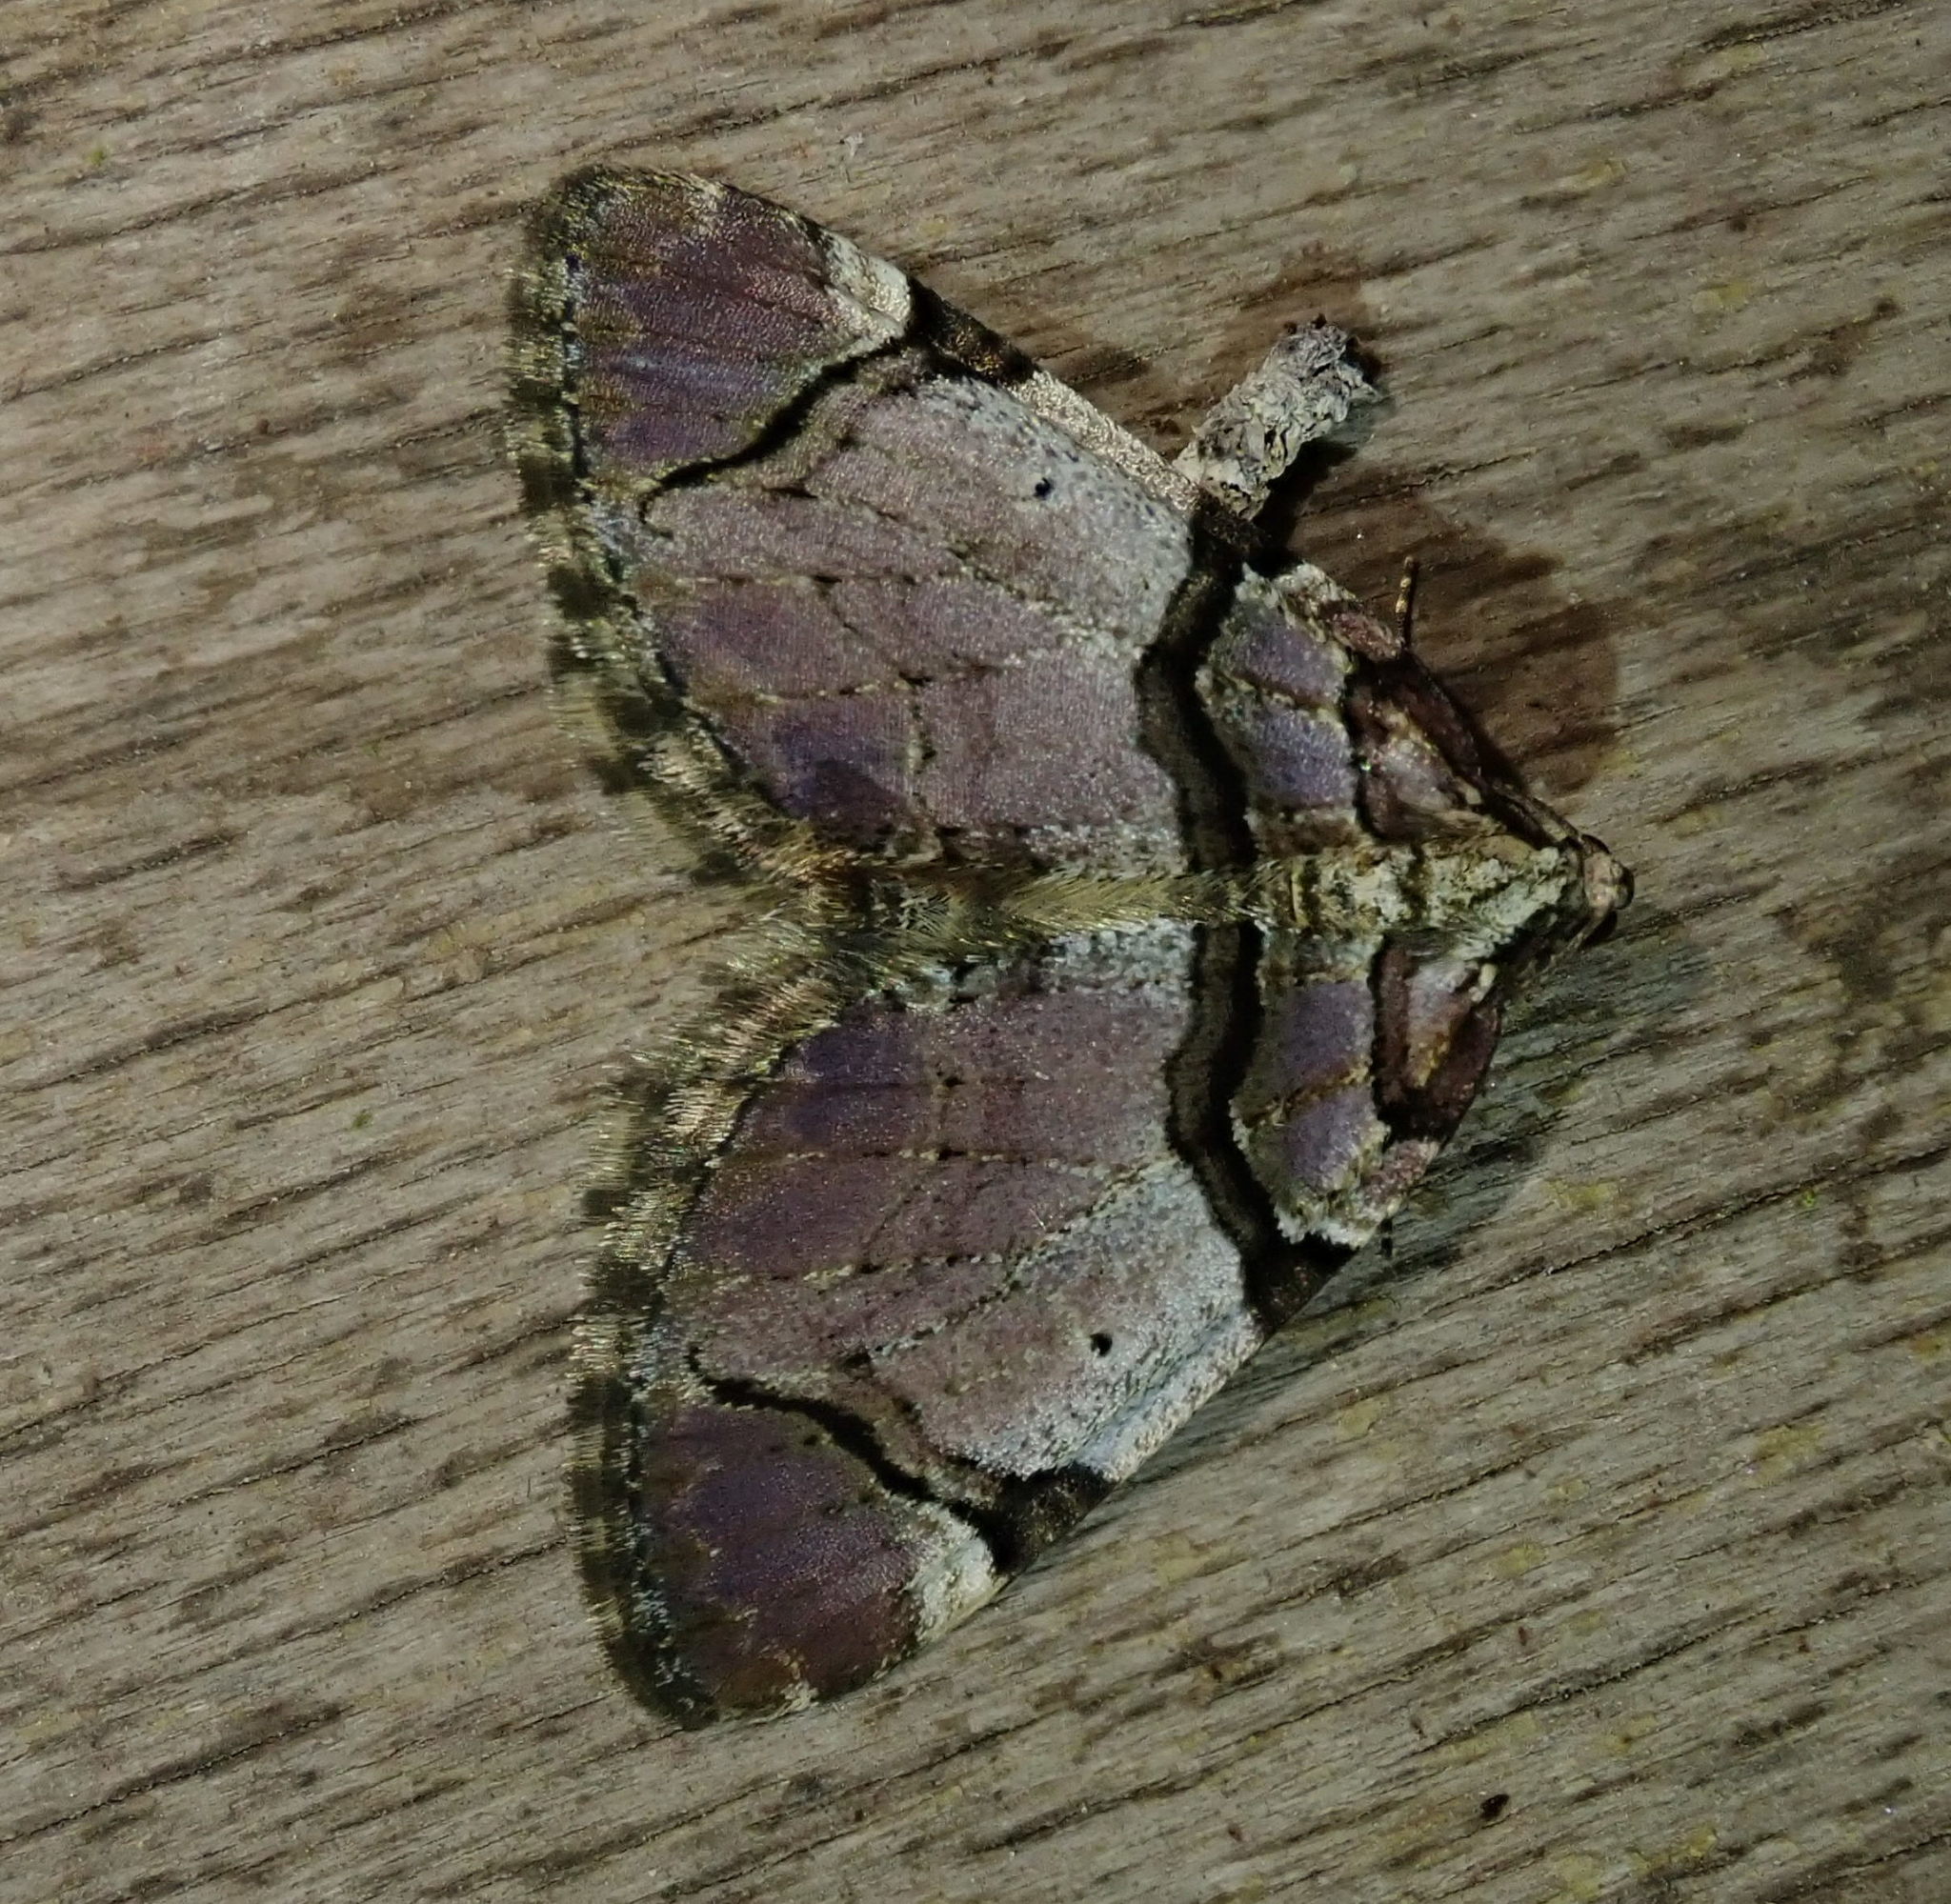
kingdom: Animalia
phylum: Arthropoda
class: Insecta
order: Lepidoptera
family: Geometridae
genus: Anticlea
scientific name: Anticlea derivata
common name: Streamer
